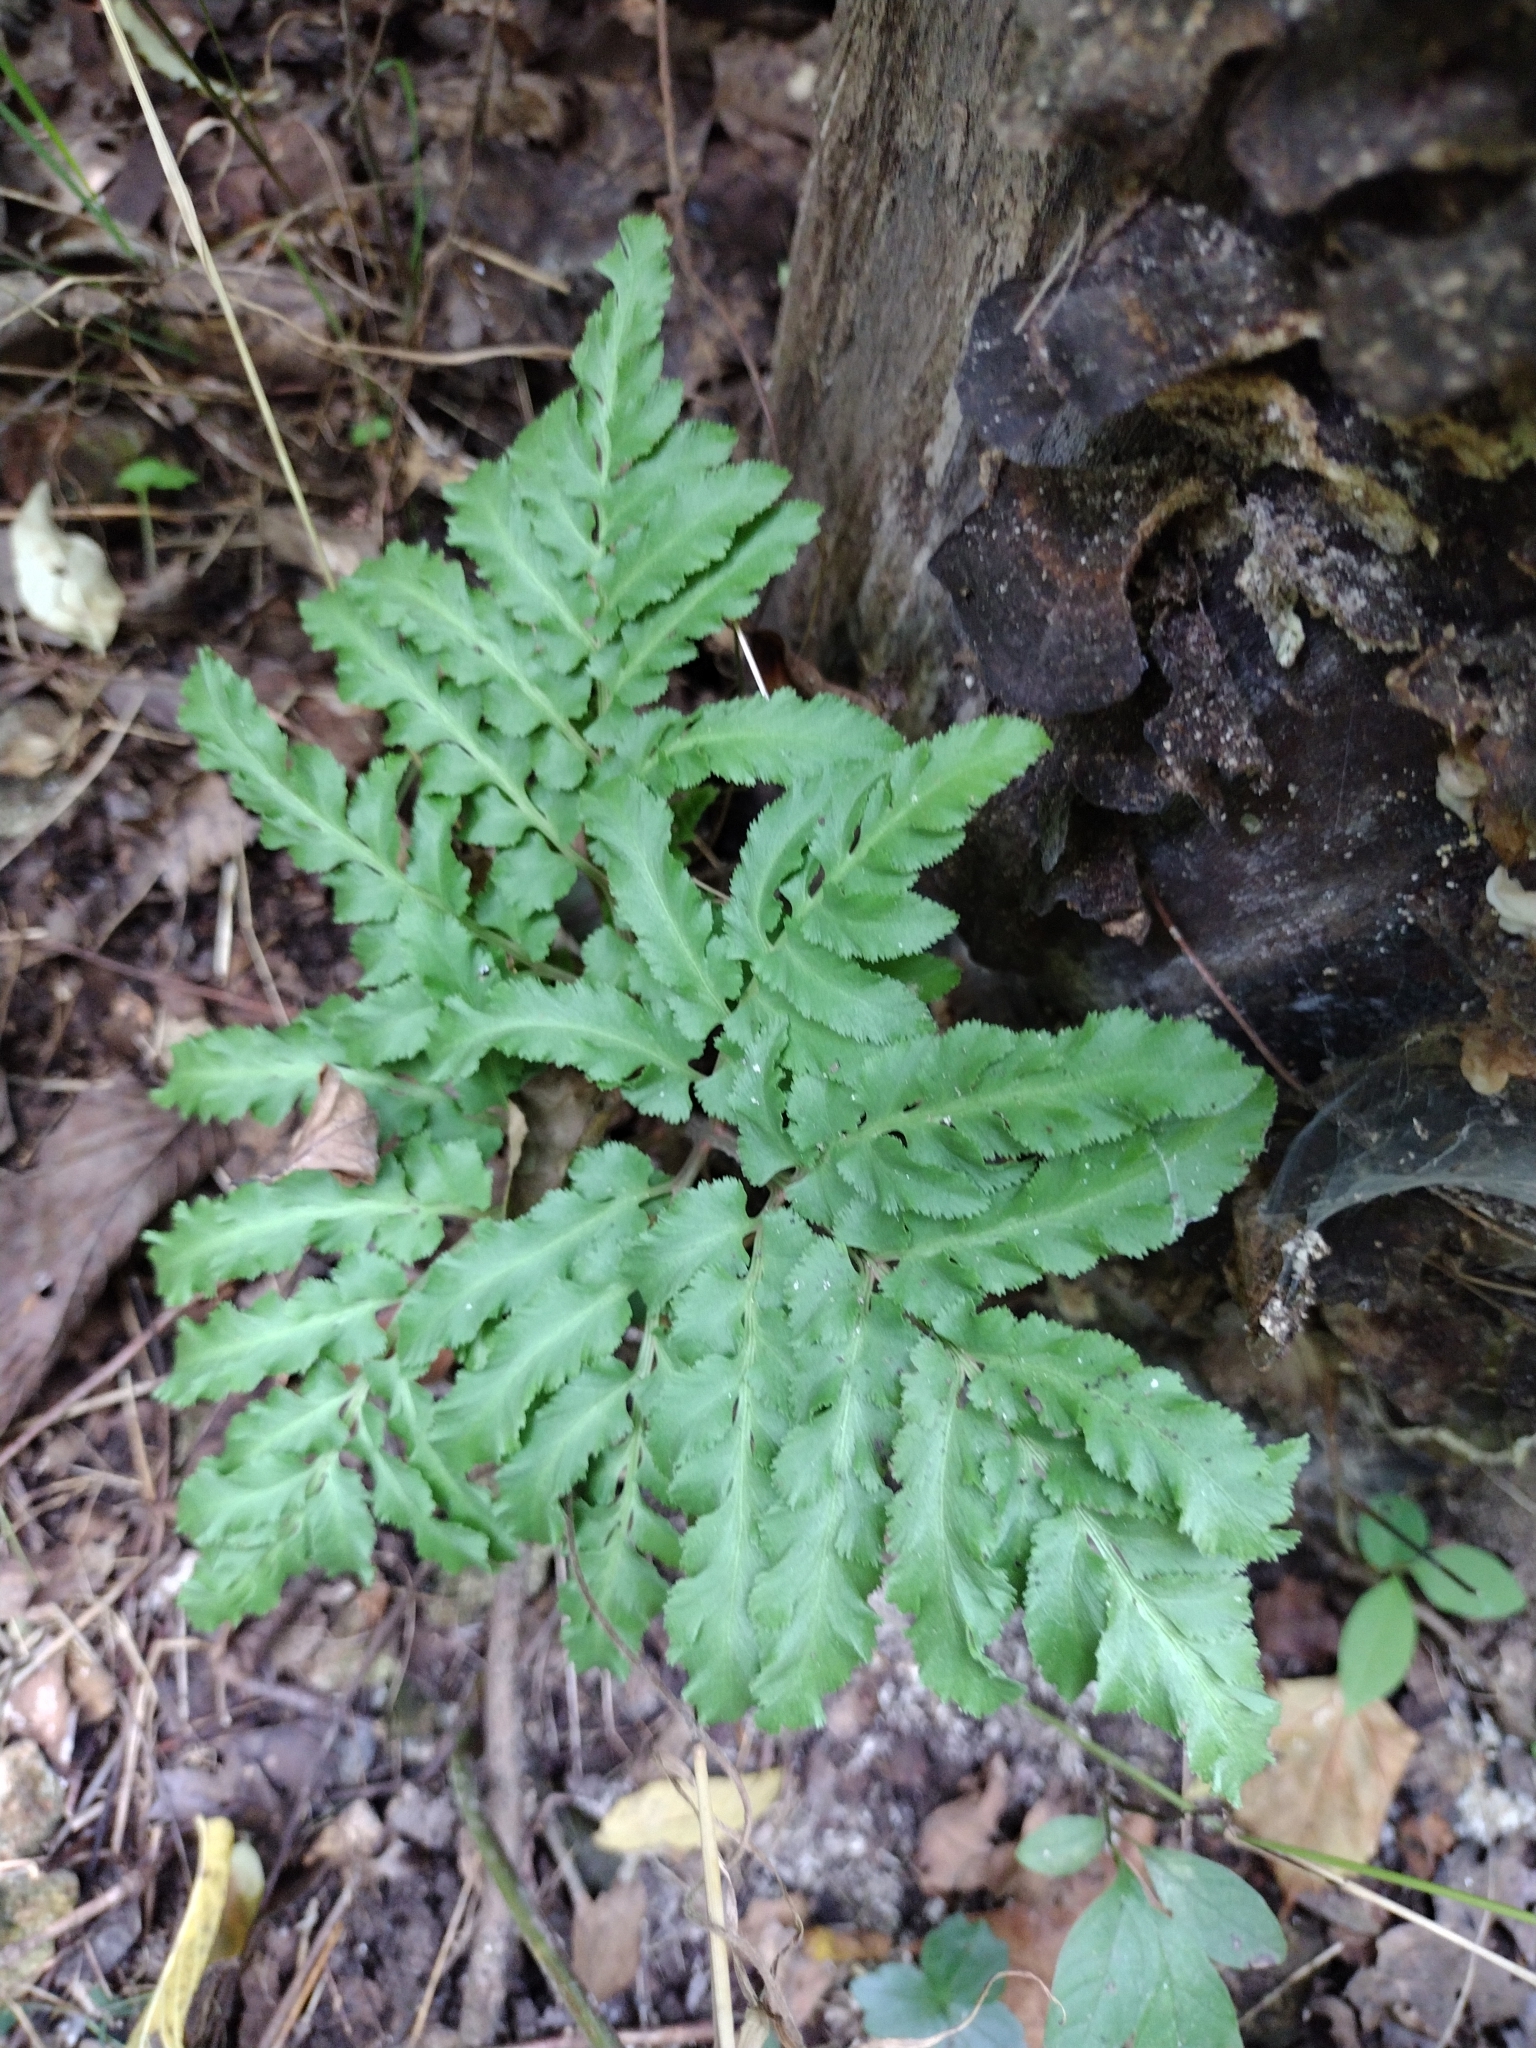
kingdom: Plantae
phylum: Tracheophyta
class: Polypodiopsida
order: Ophioglossales
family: Ophioglossaceae
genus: Sceptridium
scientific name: Sceptridium dissectum
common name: Cut-leaved grapefern
